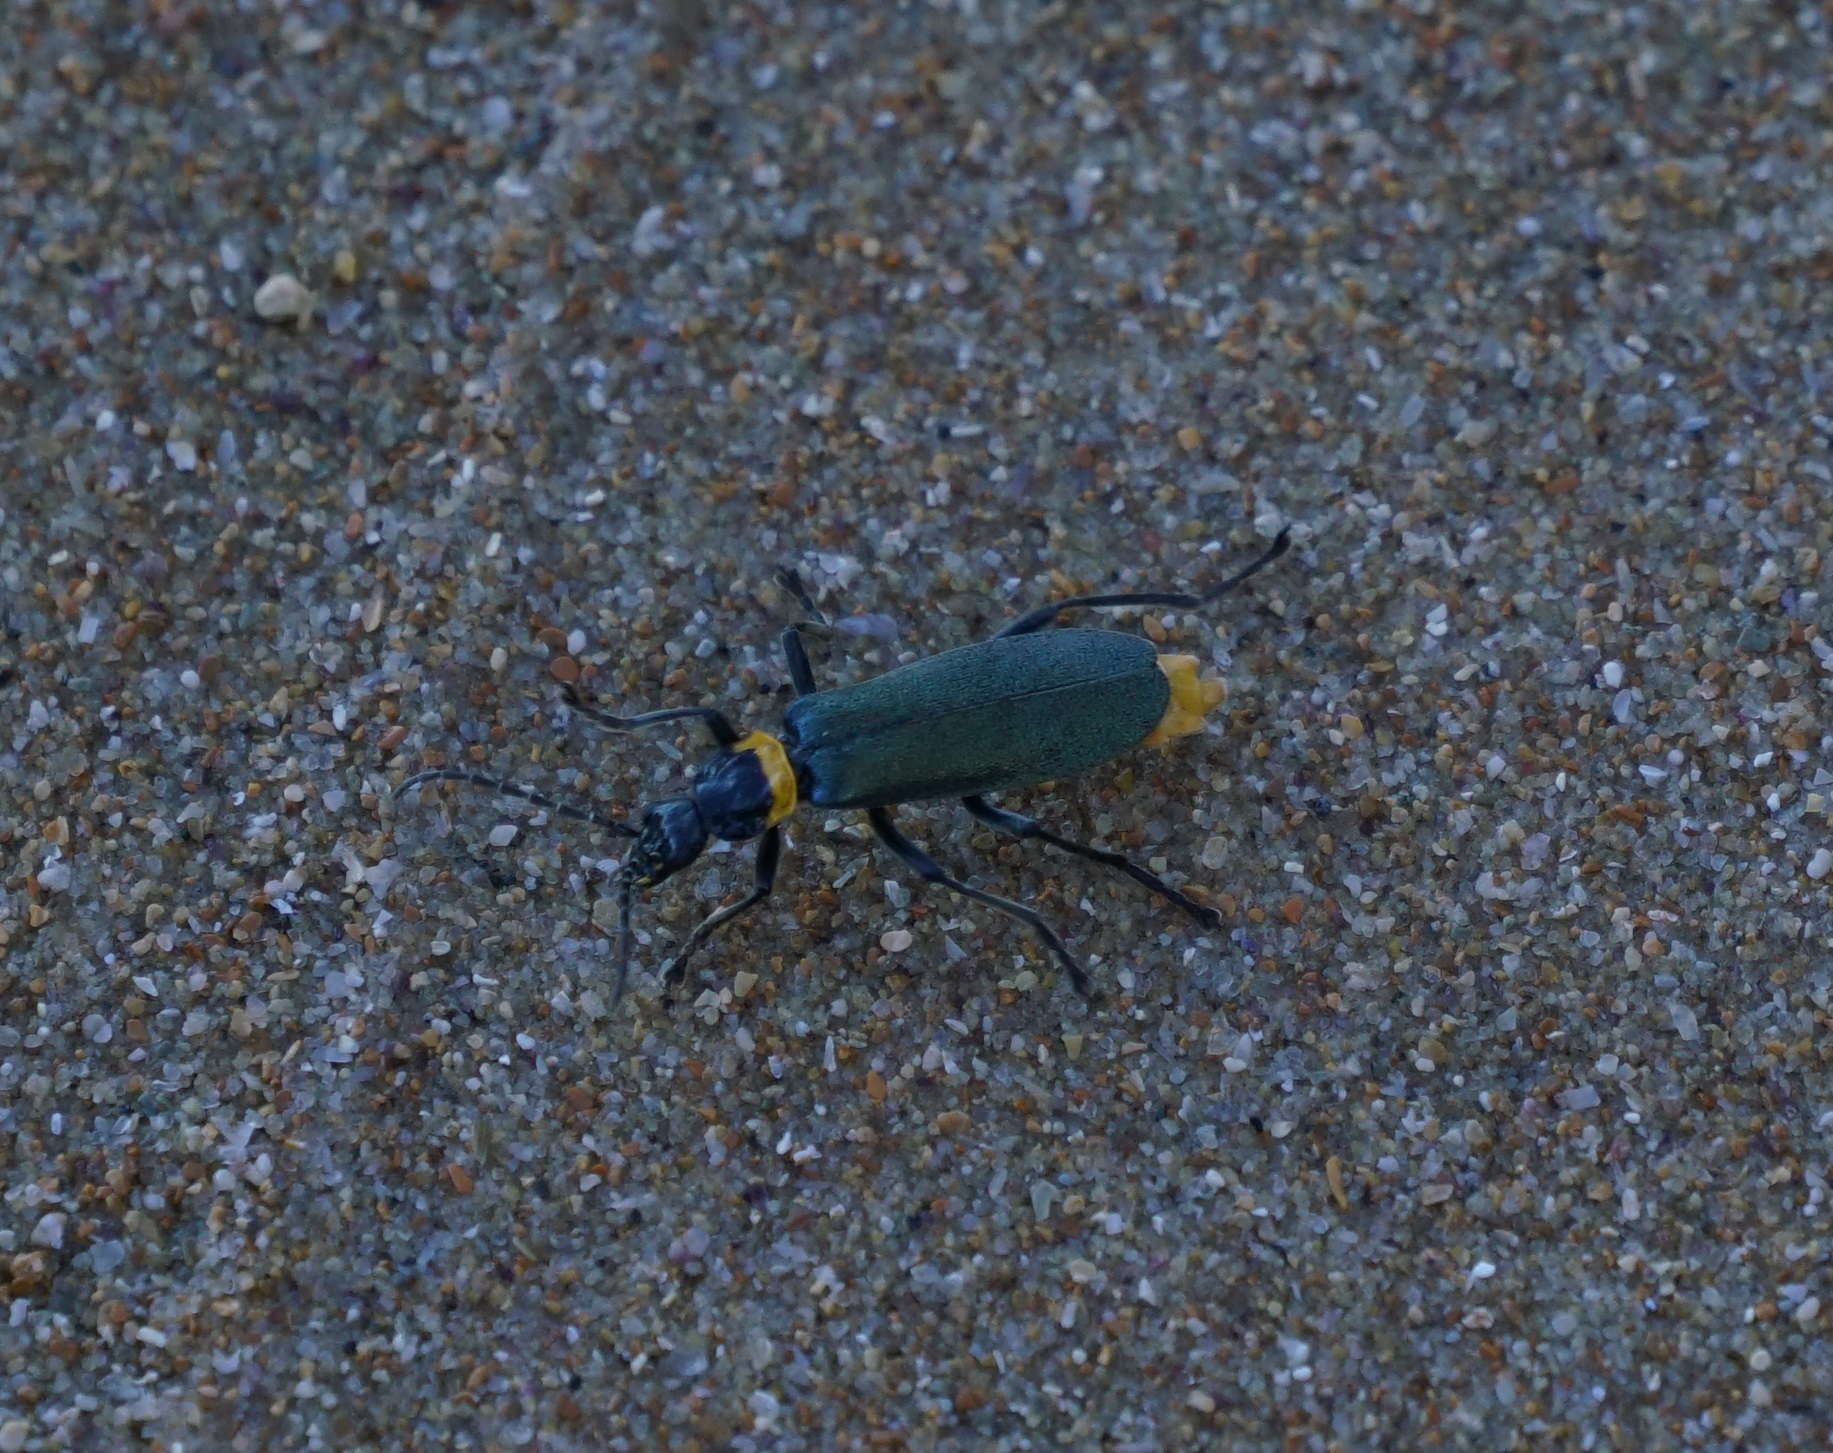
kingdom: Animalia
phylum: Arthropoda
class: Insecta
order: Coleoptera
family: Cantharidae
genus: Chauliognathus
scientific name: Chauliognathus
